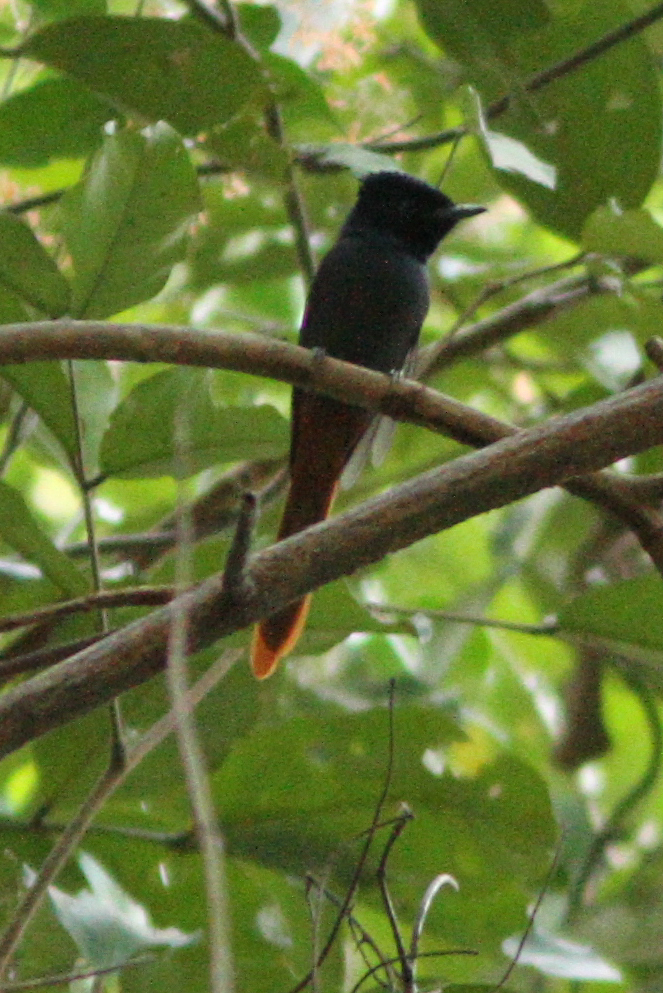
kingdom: Animalia
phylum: Chordata
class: Aves
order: Passeriformes
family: Monarchidae
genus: Terpsiphone
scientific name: Terpsiphone viridis
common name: African paradise flycatcher
